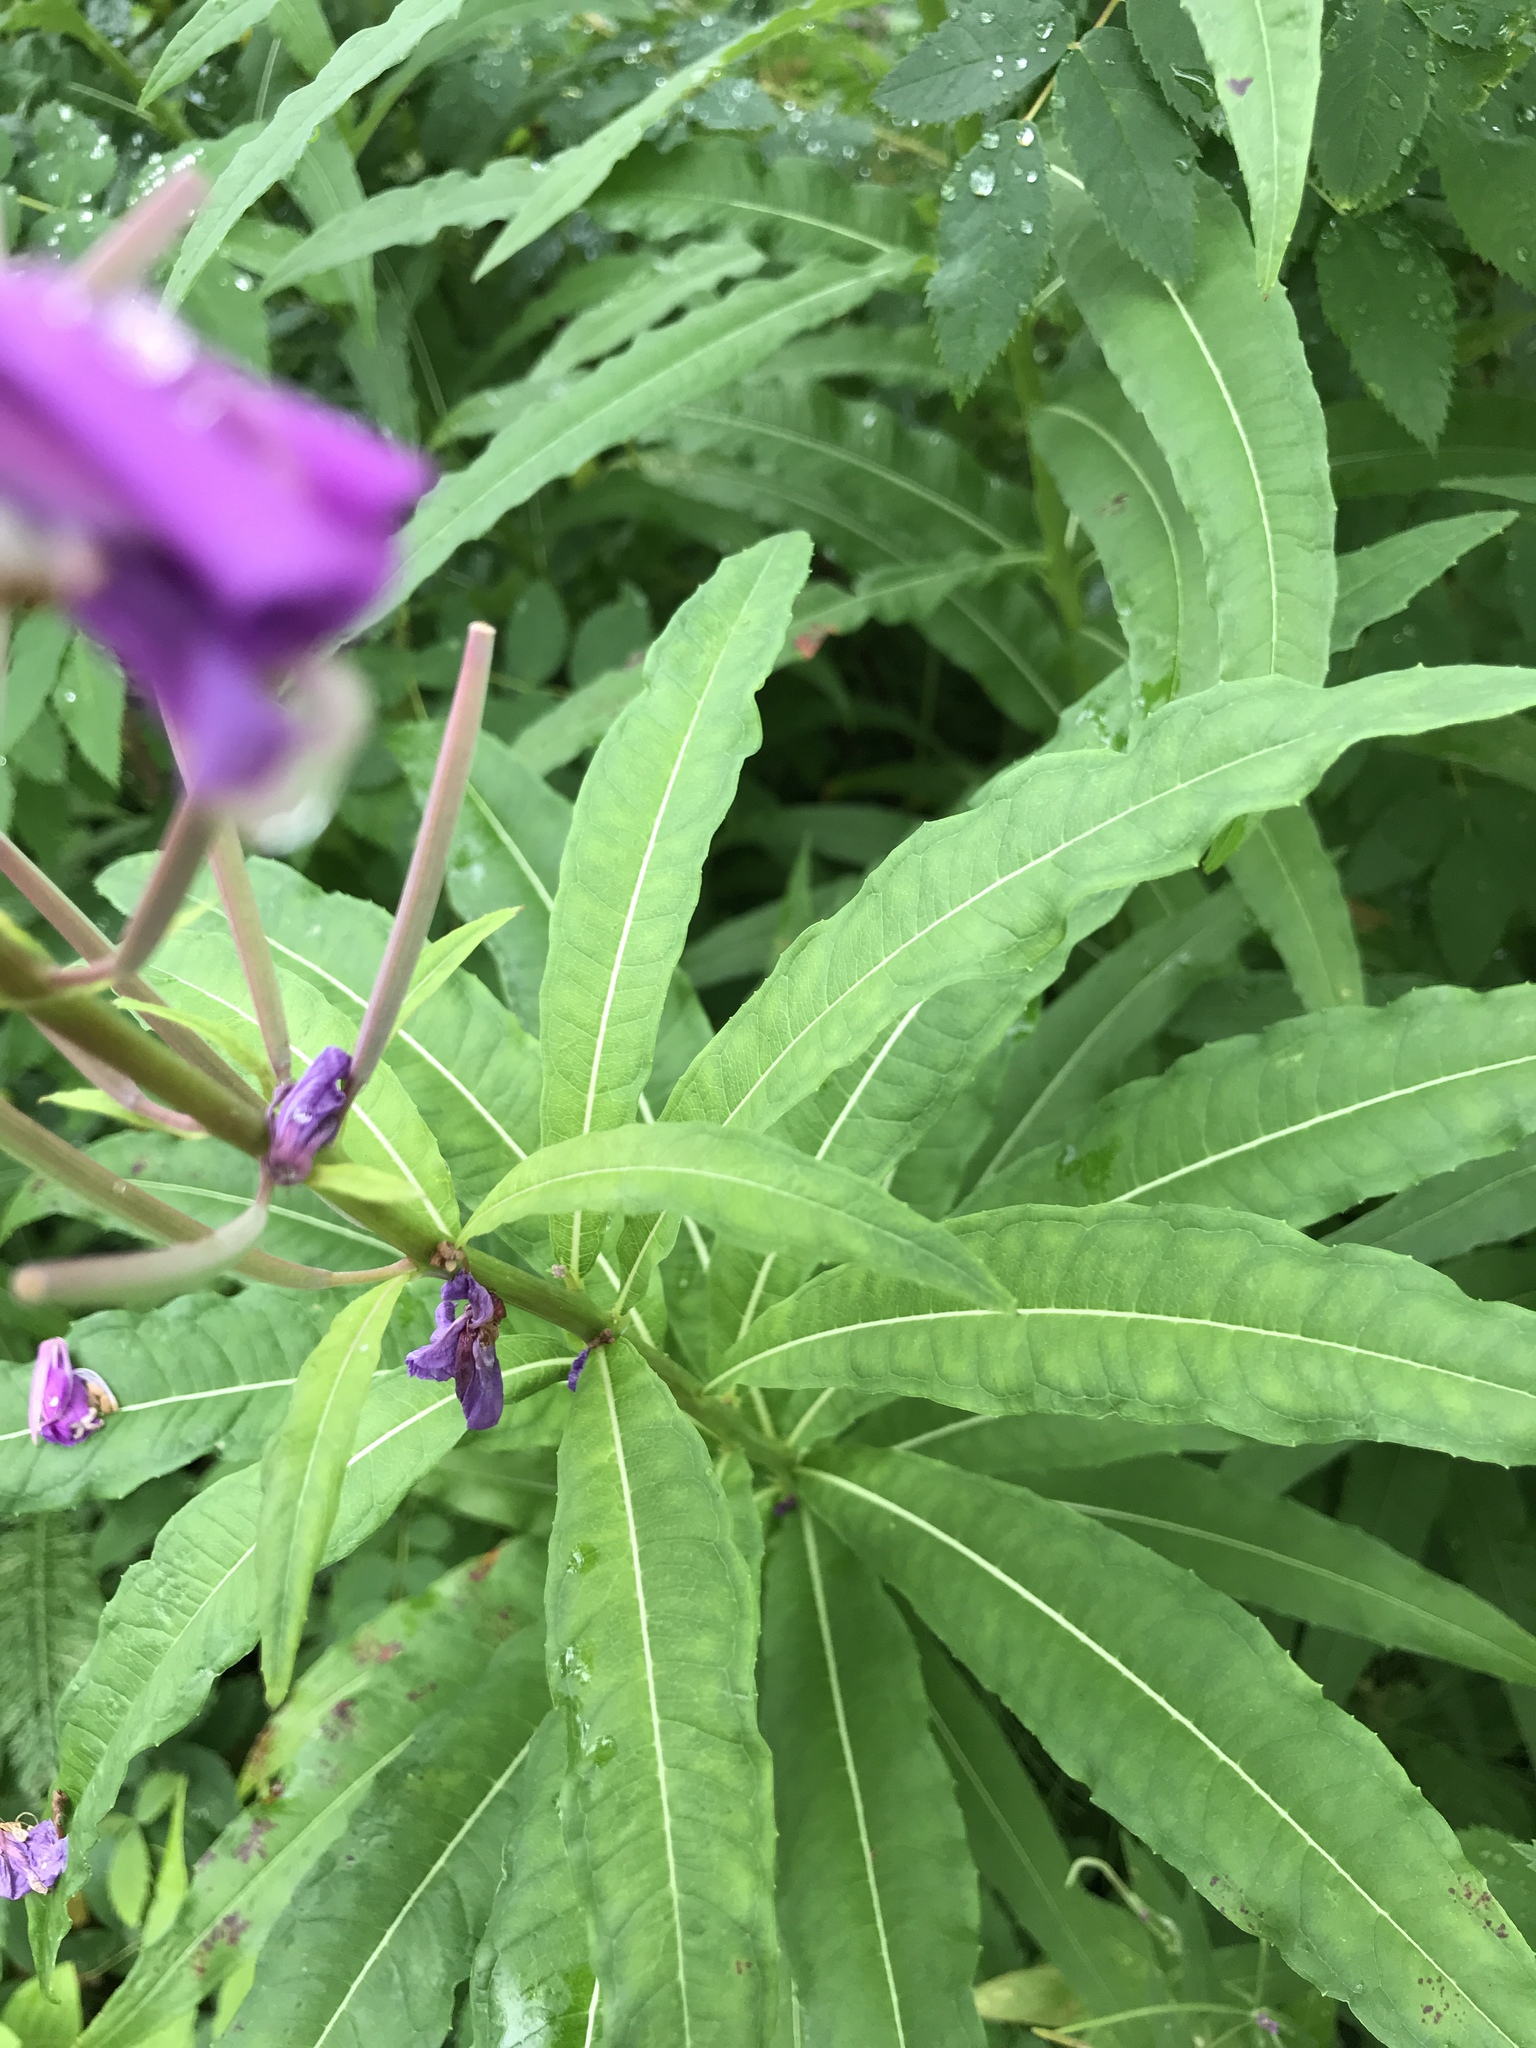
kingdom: Plantae
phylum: Tracheophyta
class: Magnoliopsida
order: Myrtales
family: Onagraceae
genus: Chamaenerion
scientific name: Chamaenerion angustifolium
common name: Fireweed
